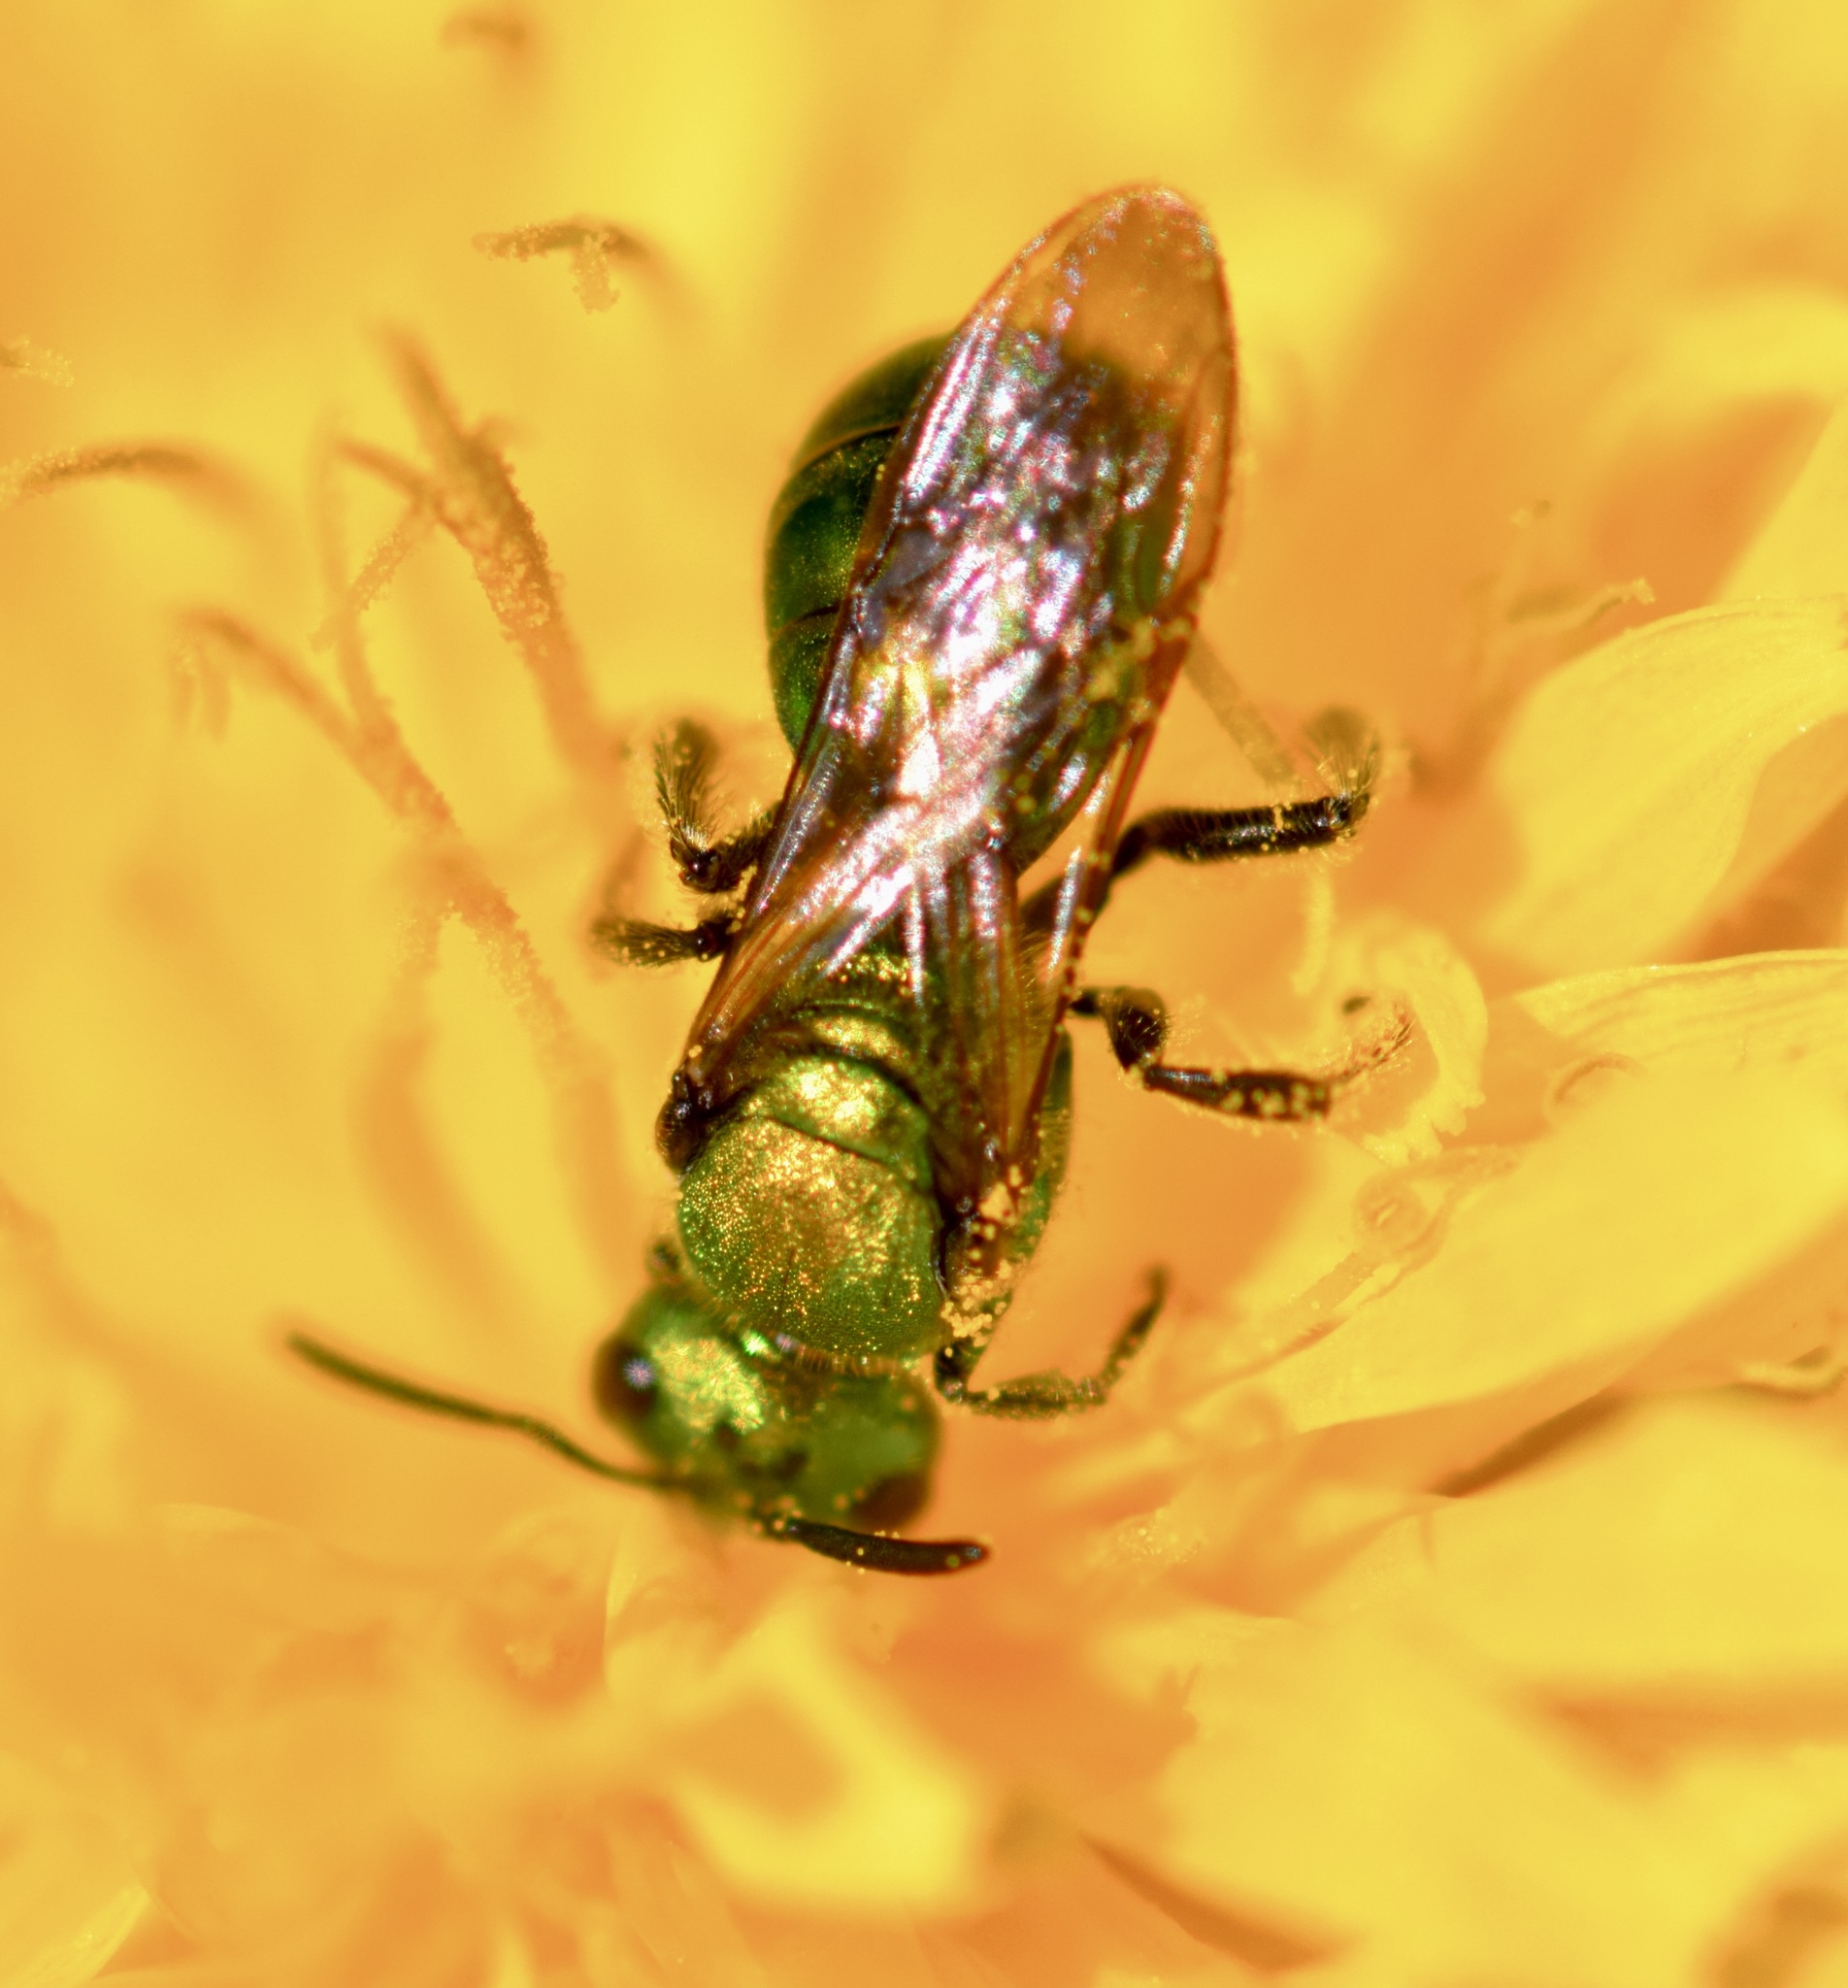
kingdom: Animalia
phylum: Arthropoda
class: Insecta
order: Hymenoptera
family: Halictidae
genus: Augochlora
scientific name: Augochlora pura
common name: Pure green sweat bee
